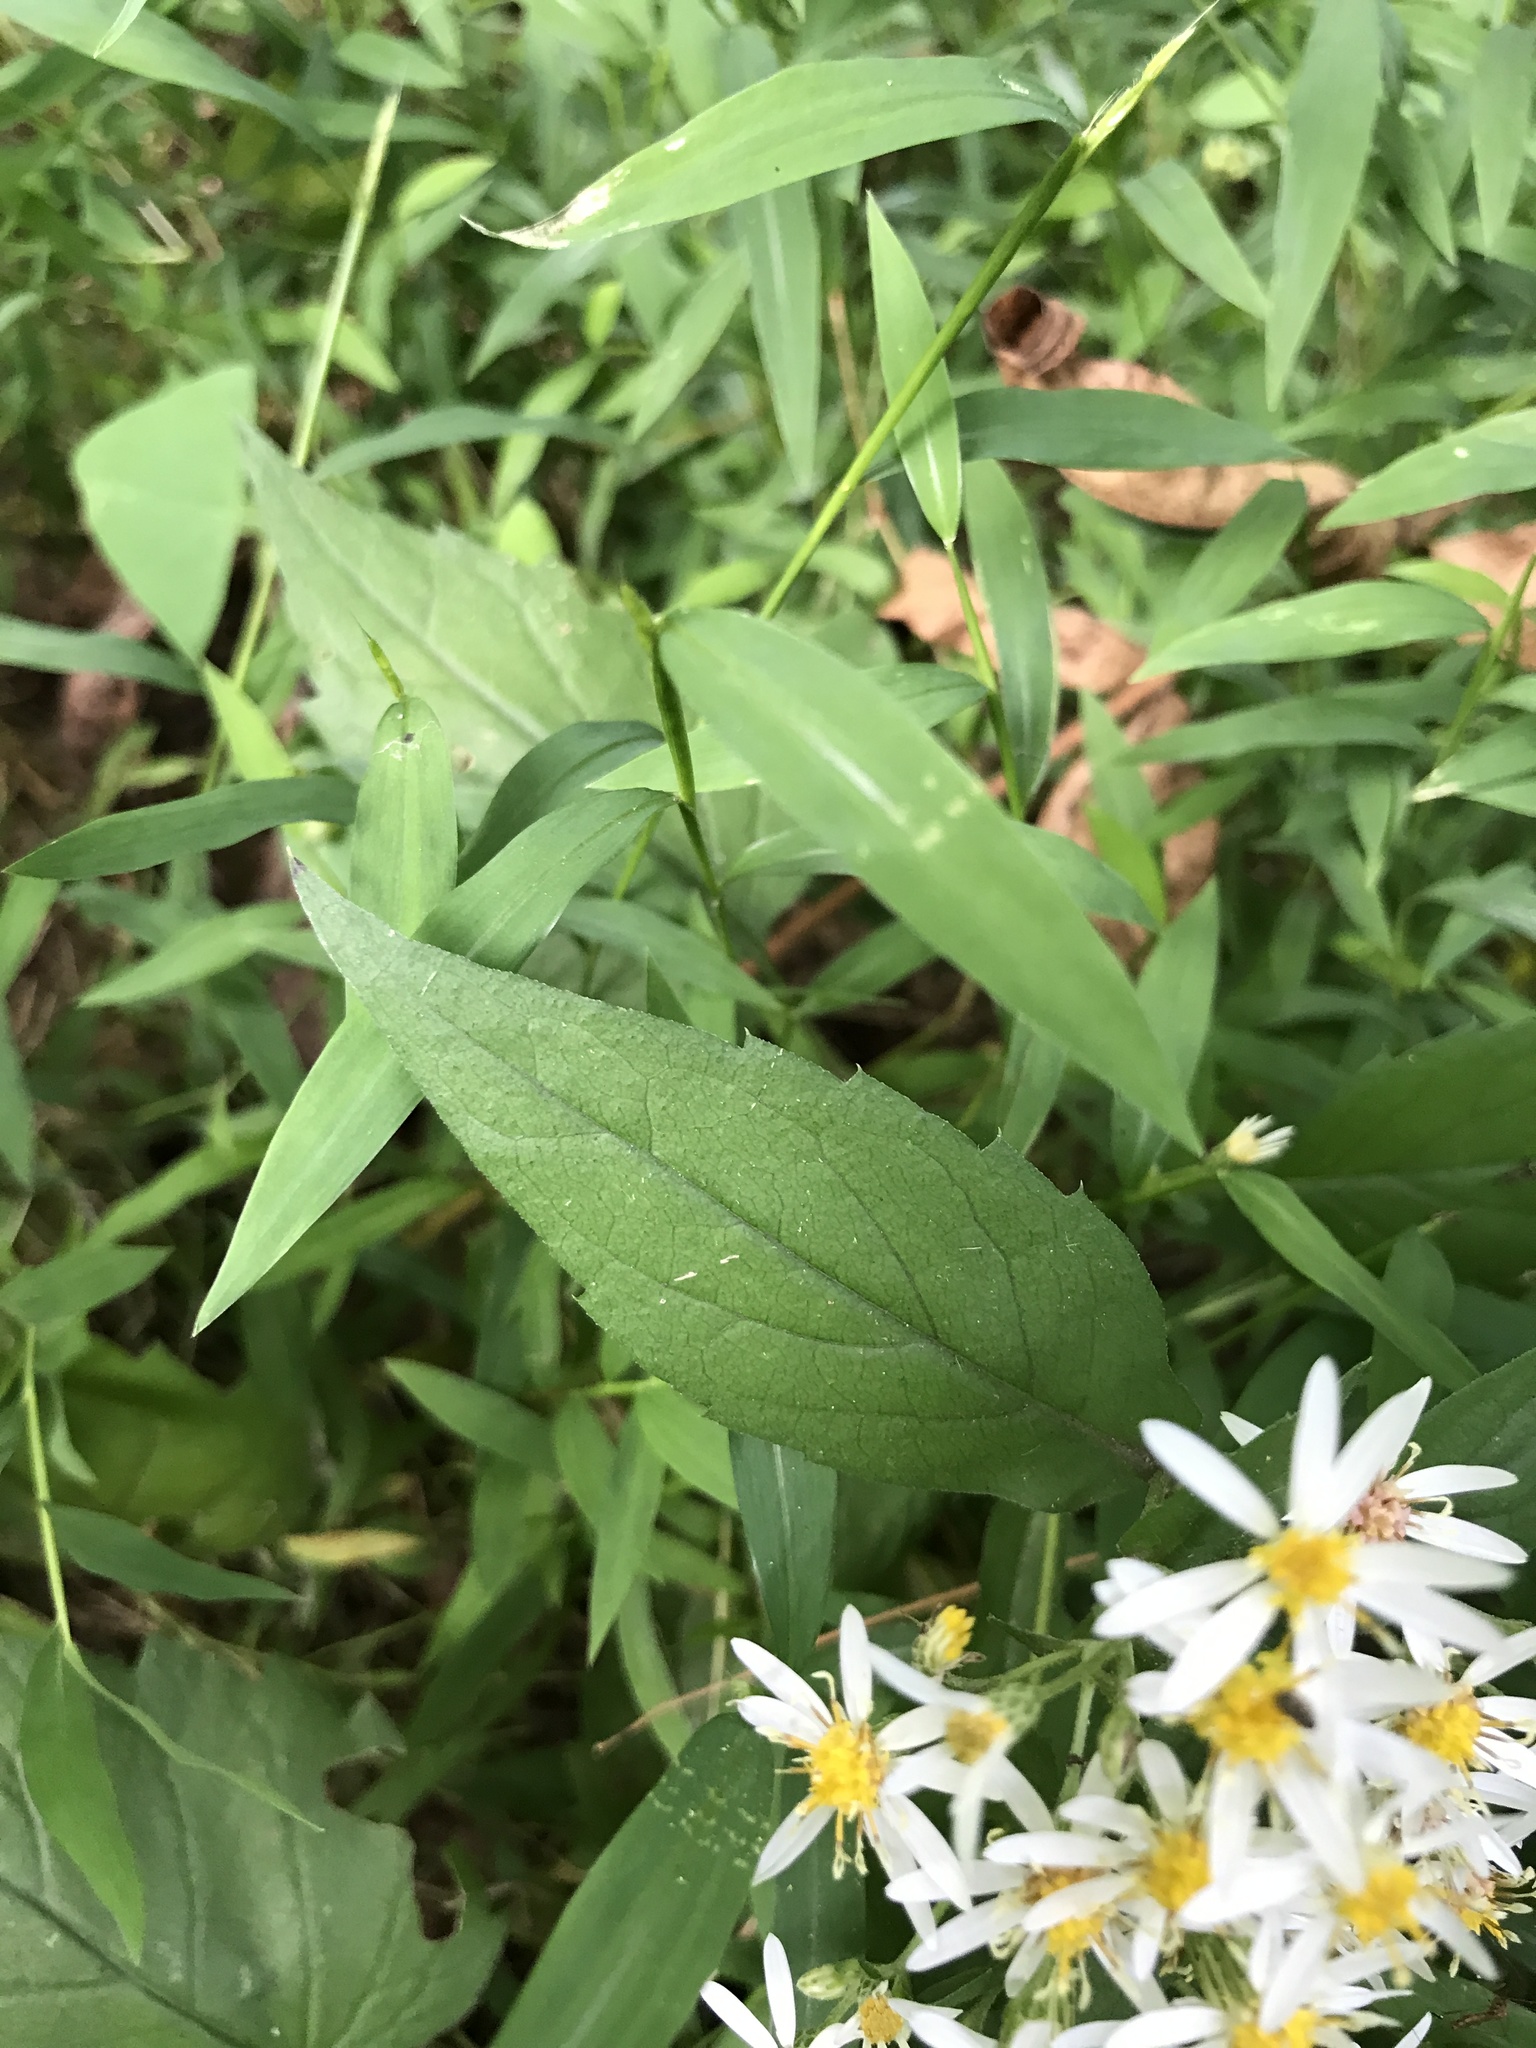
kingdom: Plantae
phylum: Tracheophyta
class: Magnoliopsida
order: Asterales
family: Asteraceae
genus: Eurybia
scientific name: Eurybia divaricata
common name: White wood aster
